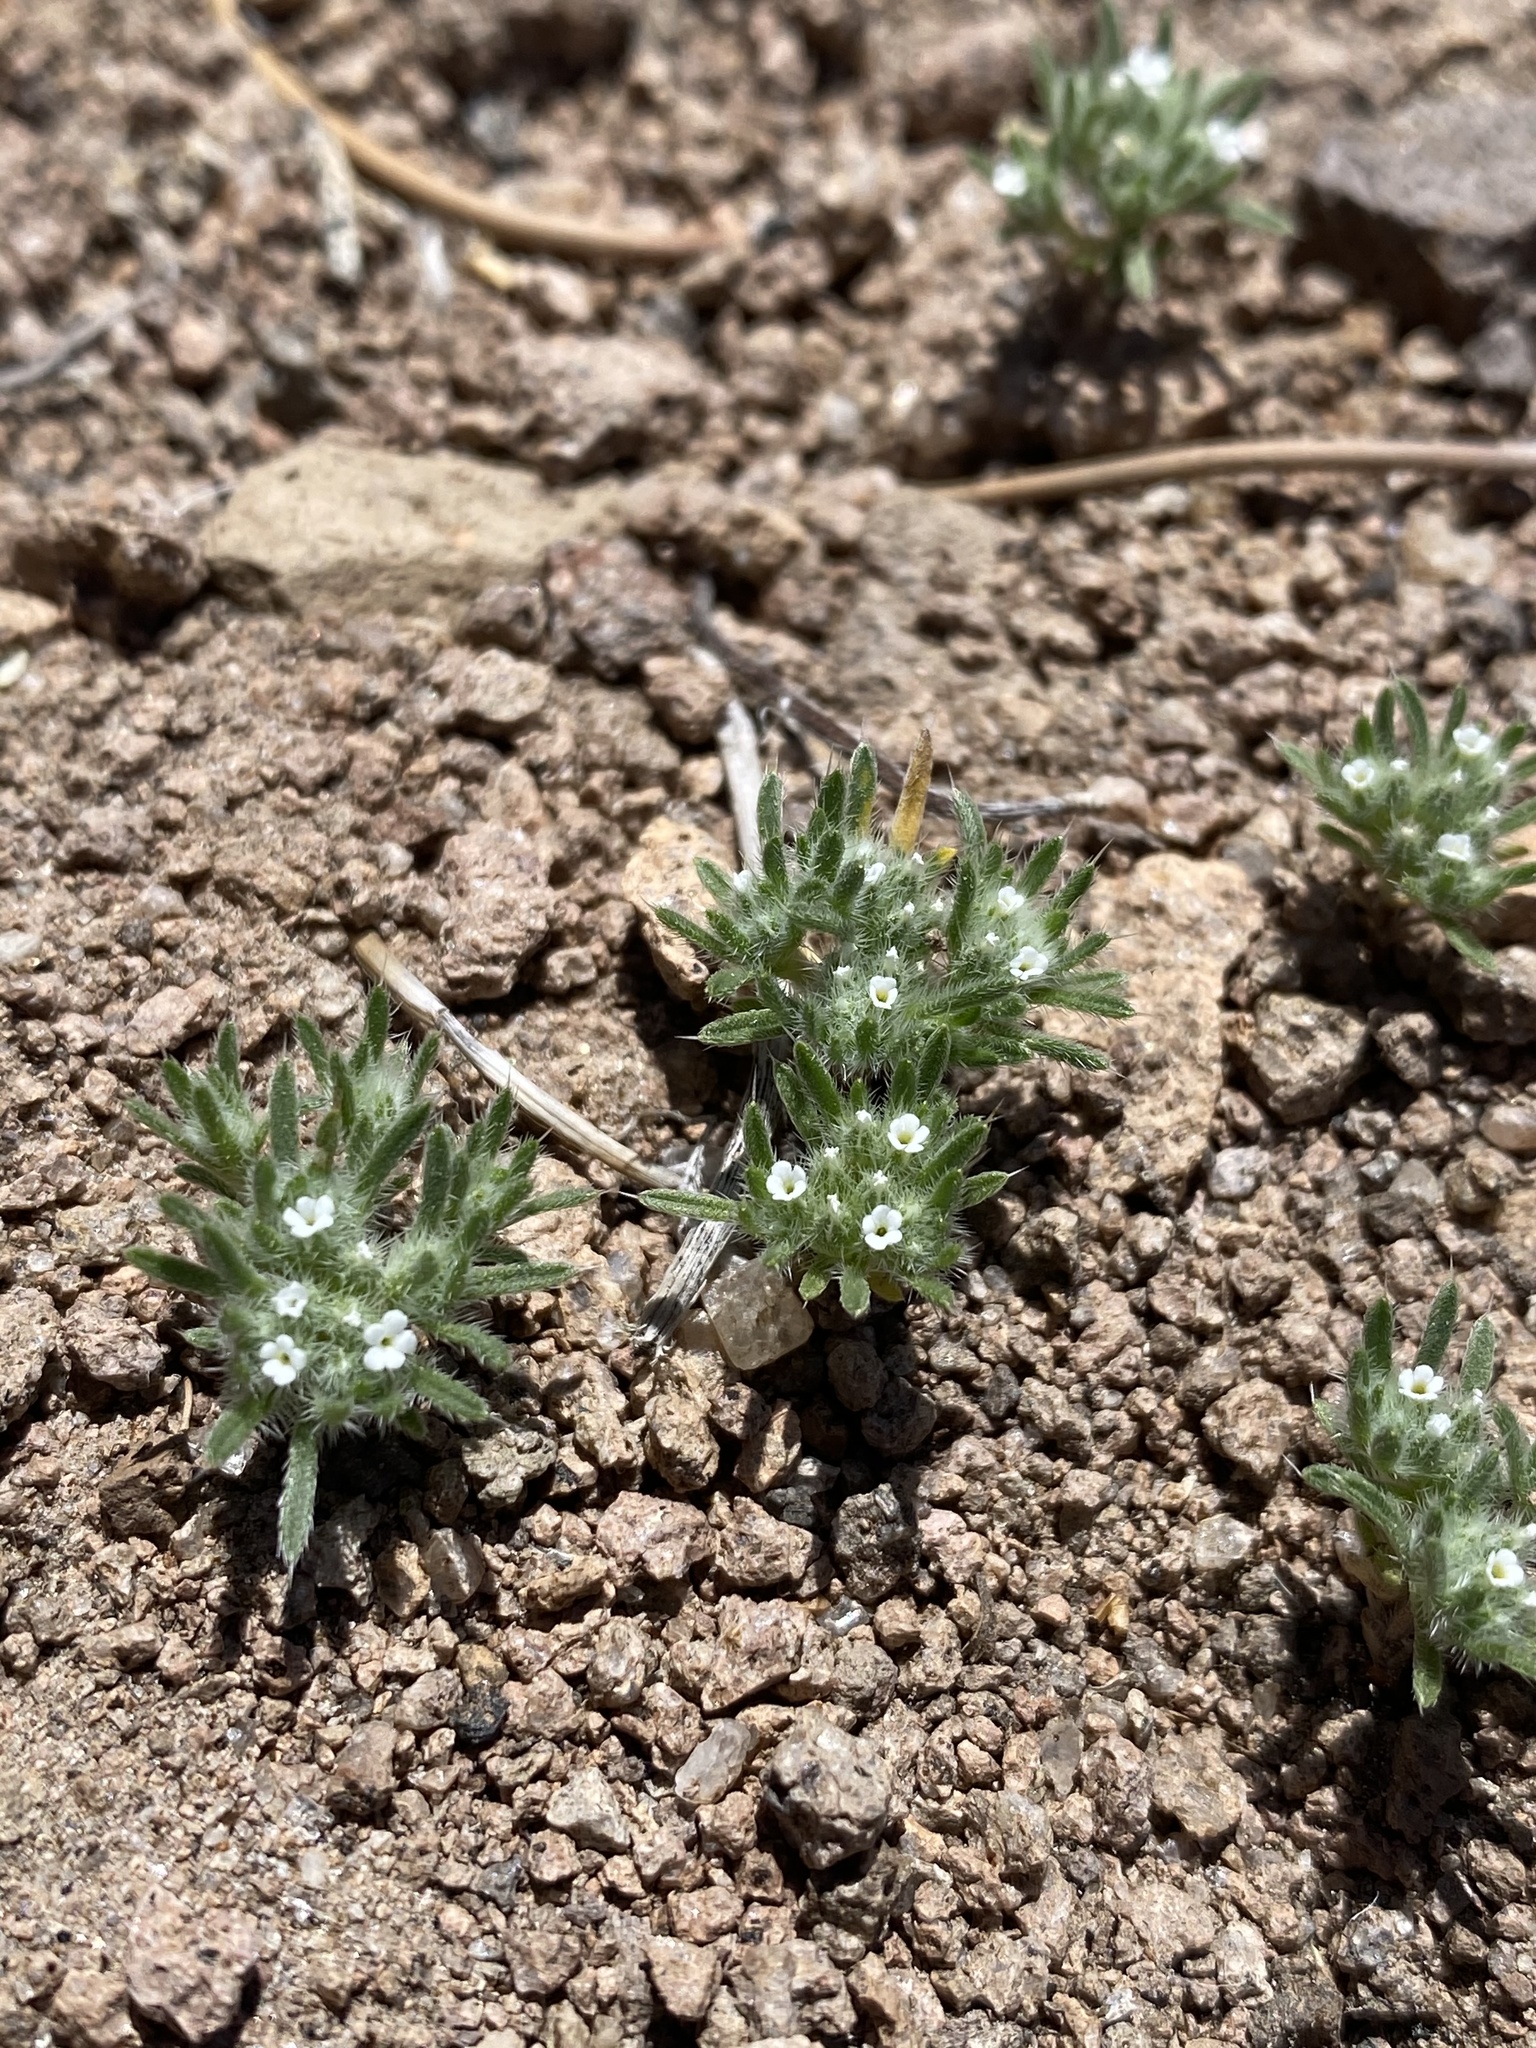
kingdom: Plantae
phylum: Tracheophyta
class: Magnoliopsida
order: Boraginales
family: Boraginaceae
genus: Greeneocharis
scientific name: Greeneocharis circumscissa
